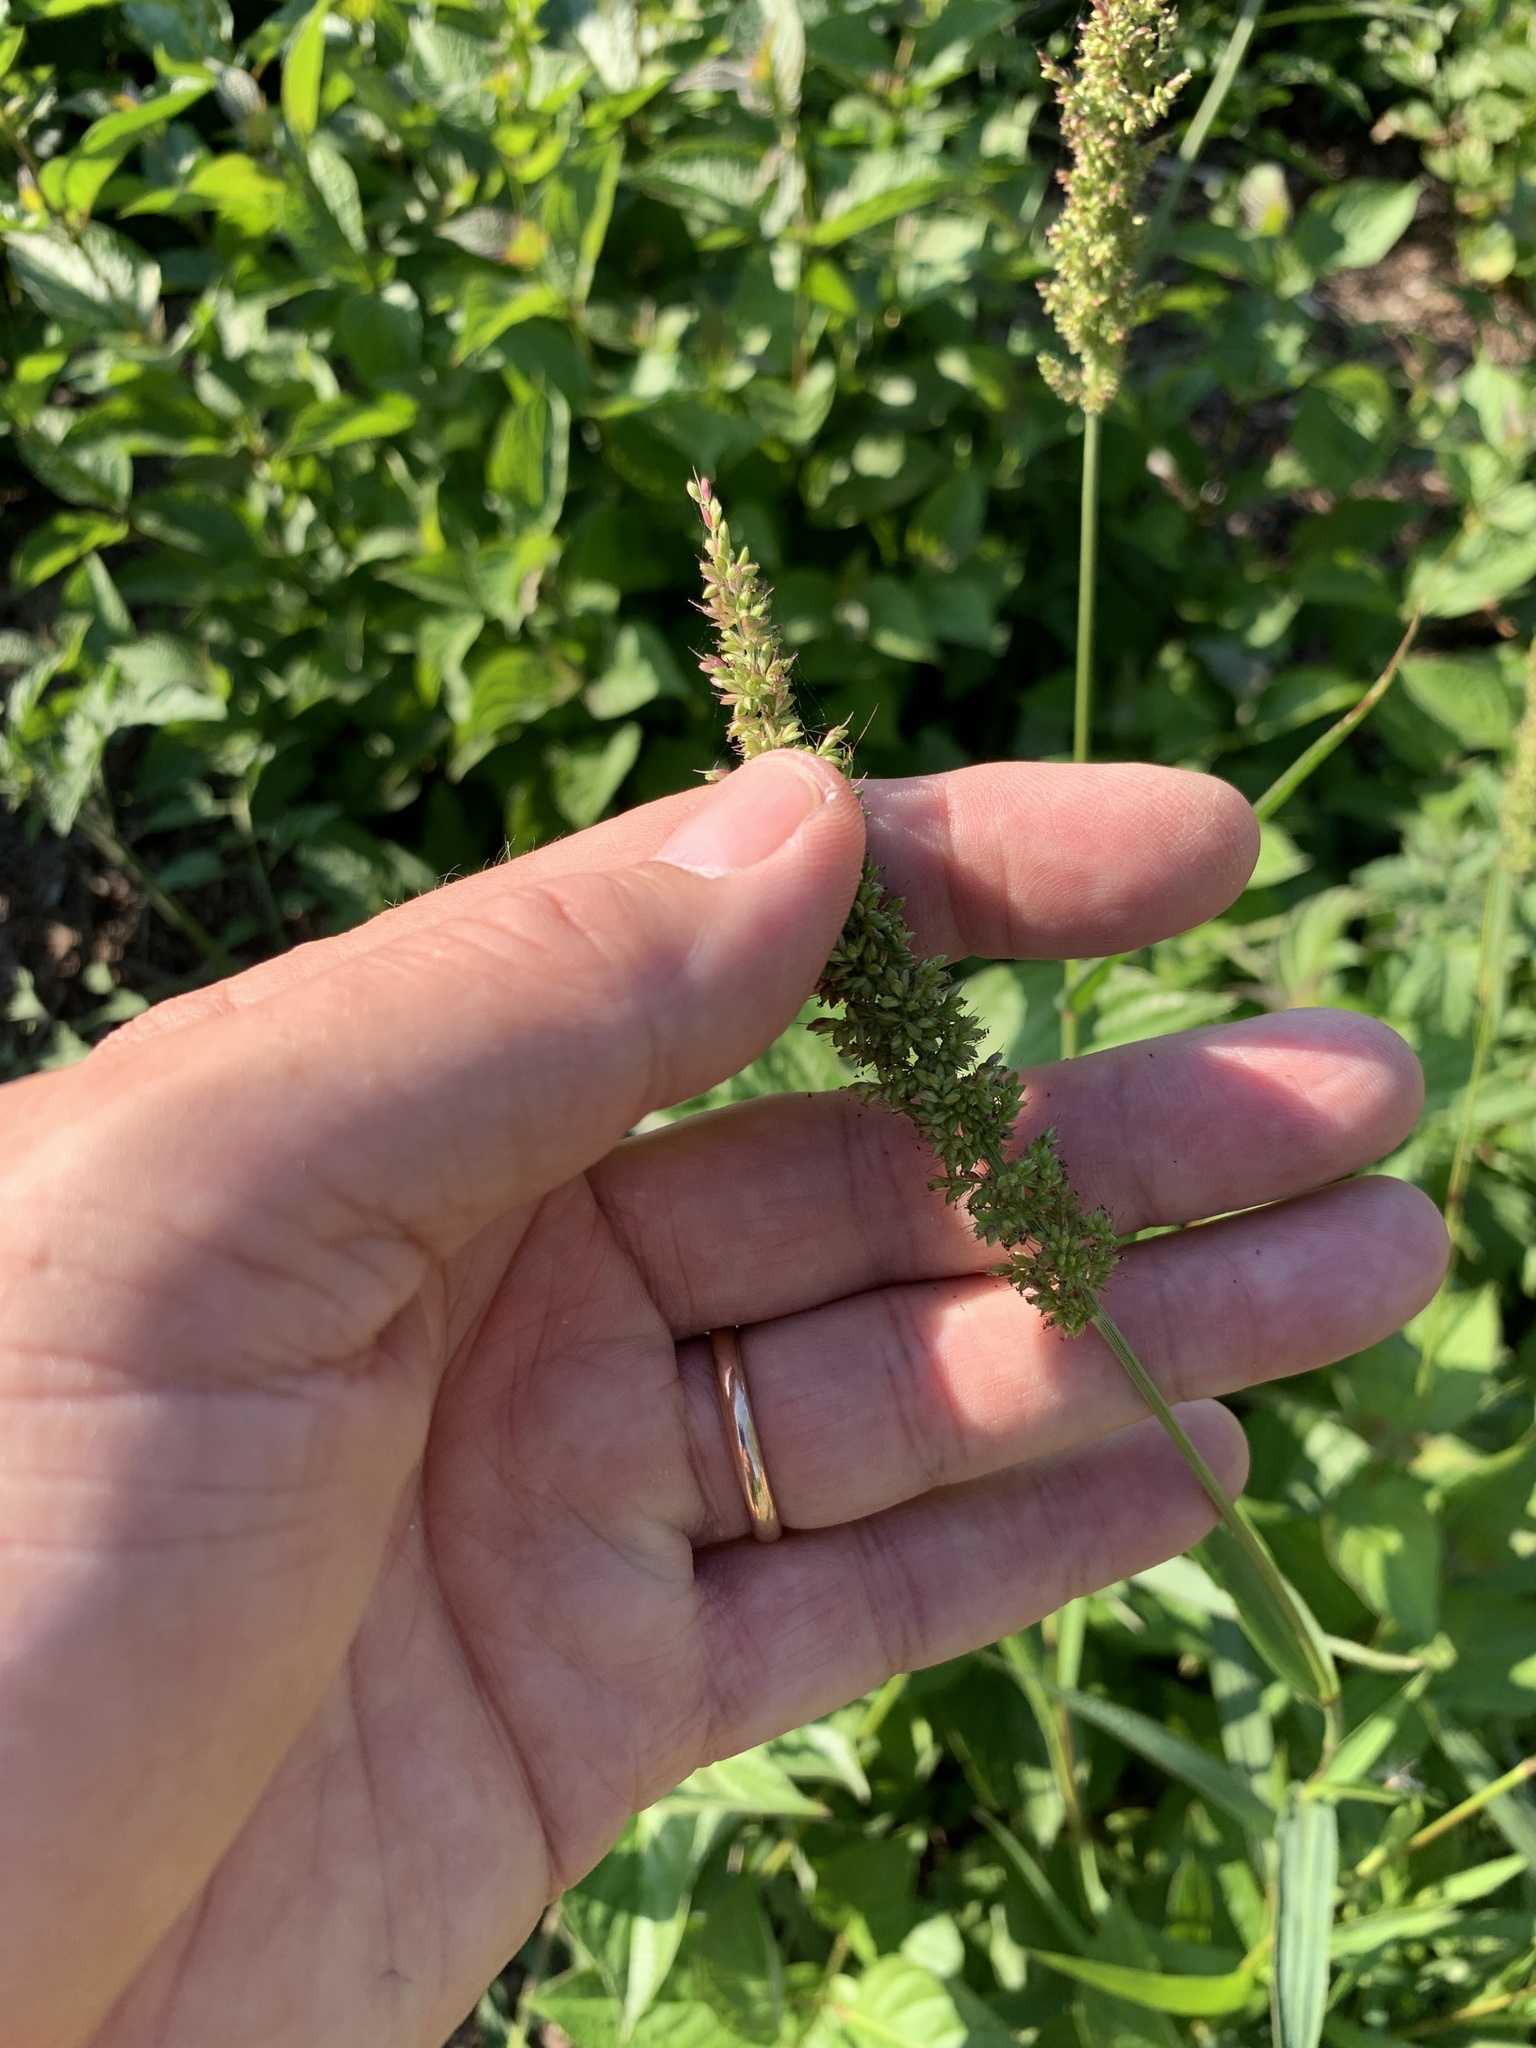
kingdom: Plantae
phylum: Tracheophyta
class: Liliopsida
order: Poales
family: Poaceae
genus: Setaria
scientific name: Setaria verticillata
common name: Hooked bristlegrass
